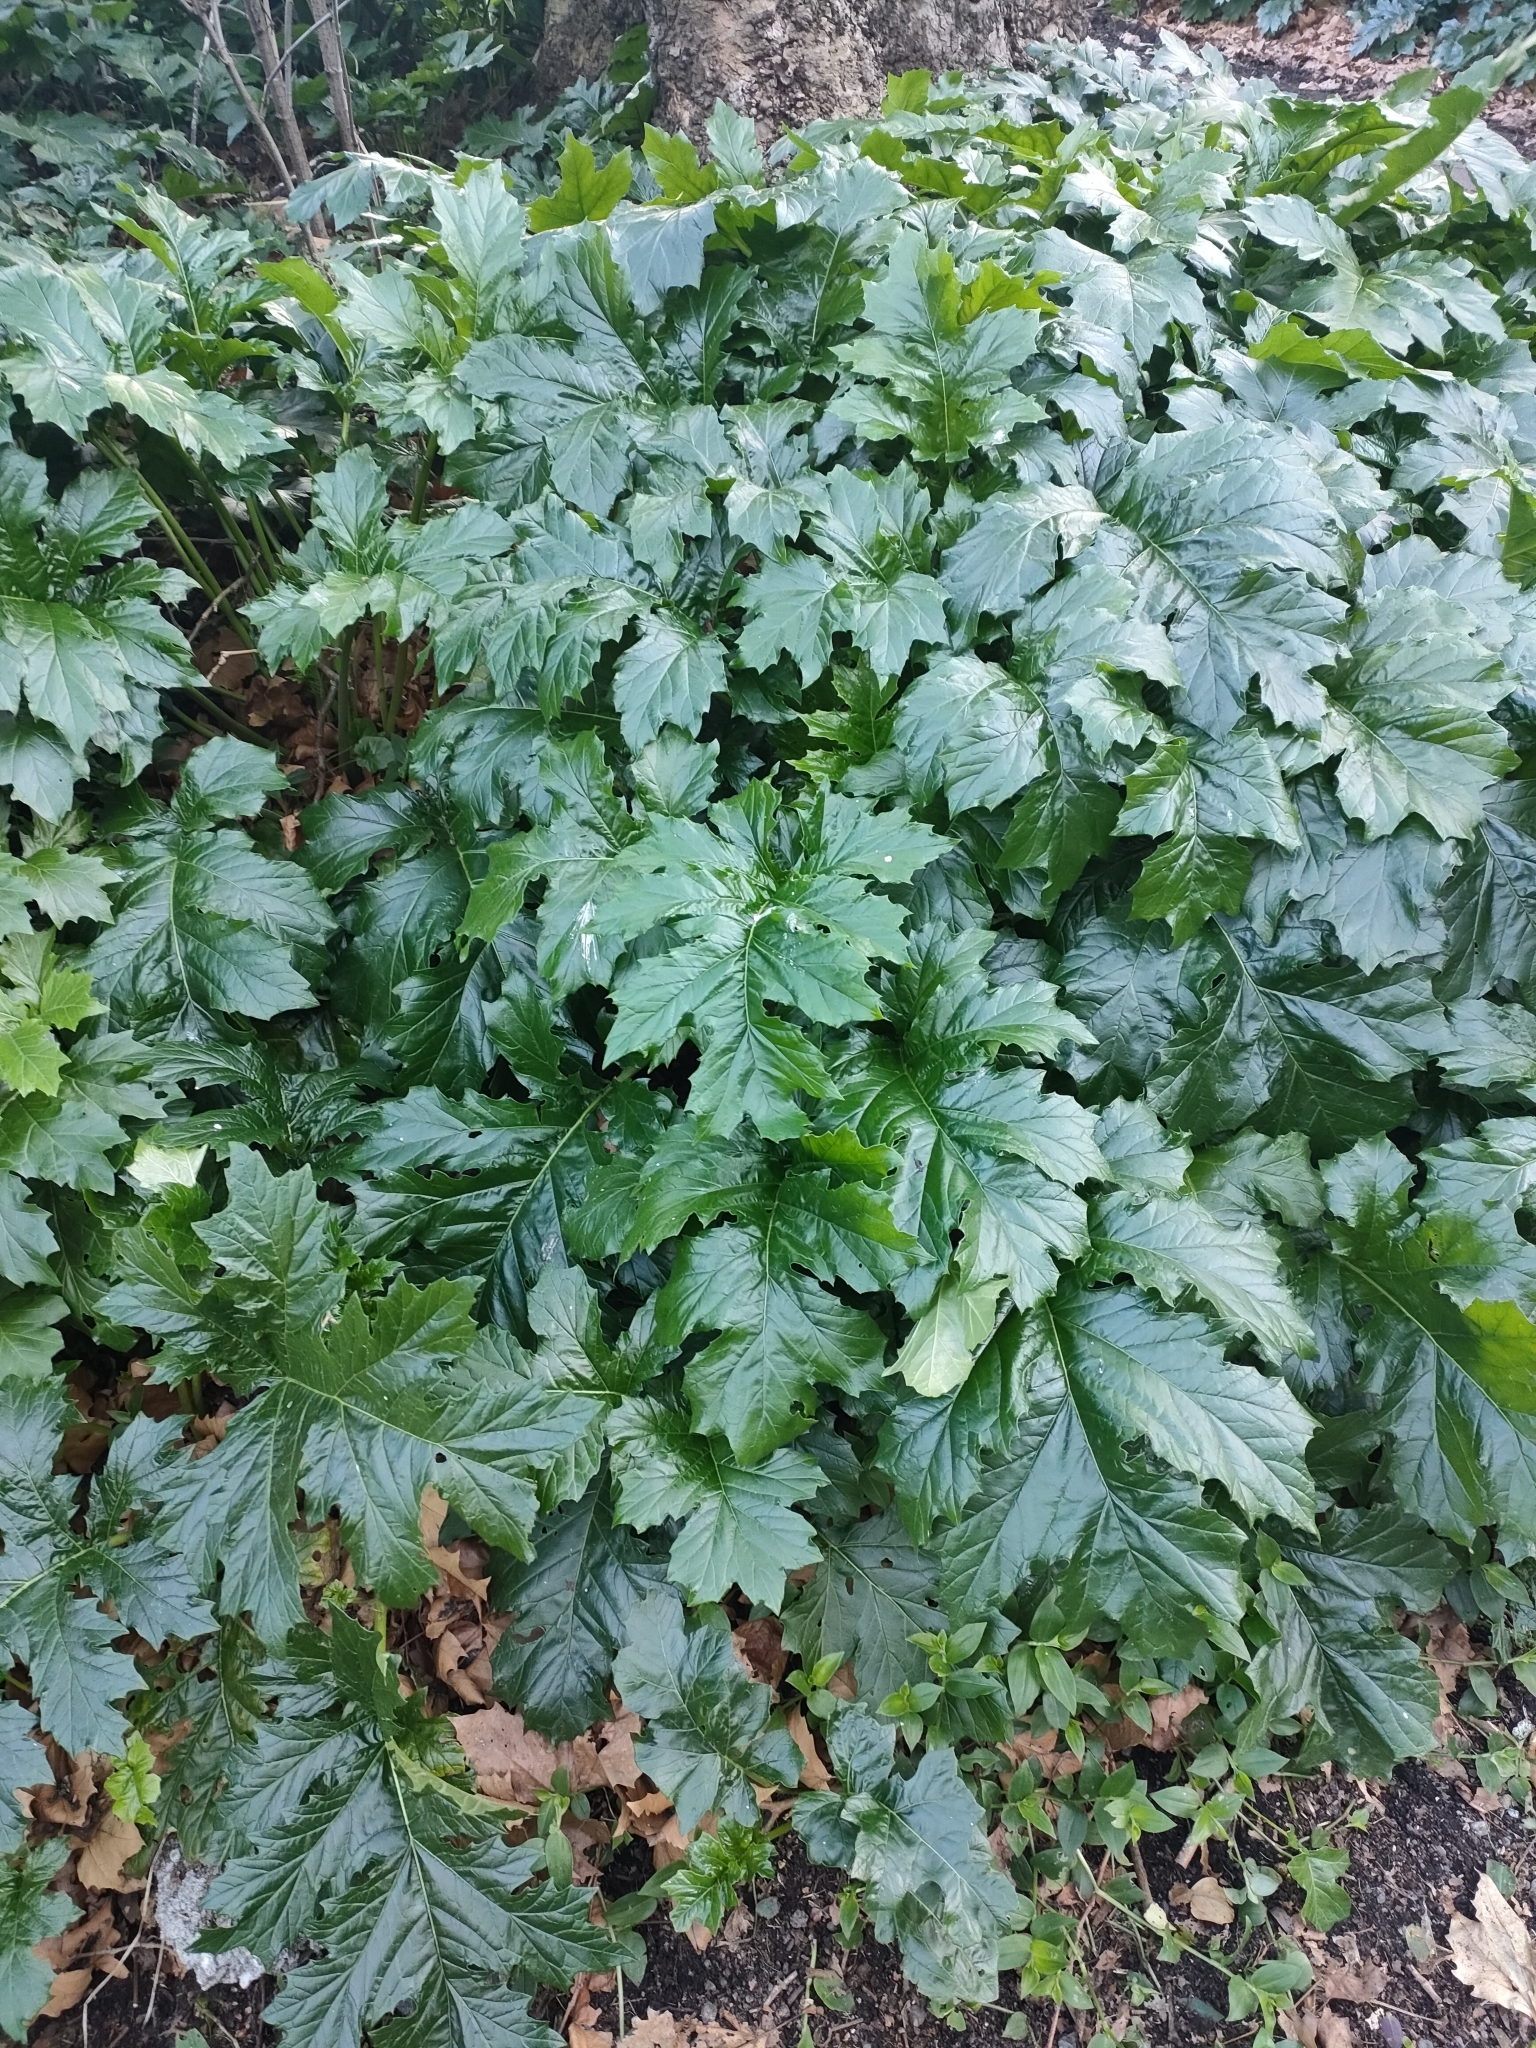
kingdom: Plantae
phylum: Tracheophyta
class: Magnoliopsida
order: Lamiales
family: Acanthaceae
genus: Acanthus
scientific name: Acanthus mollis
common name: Bear's-breech
